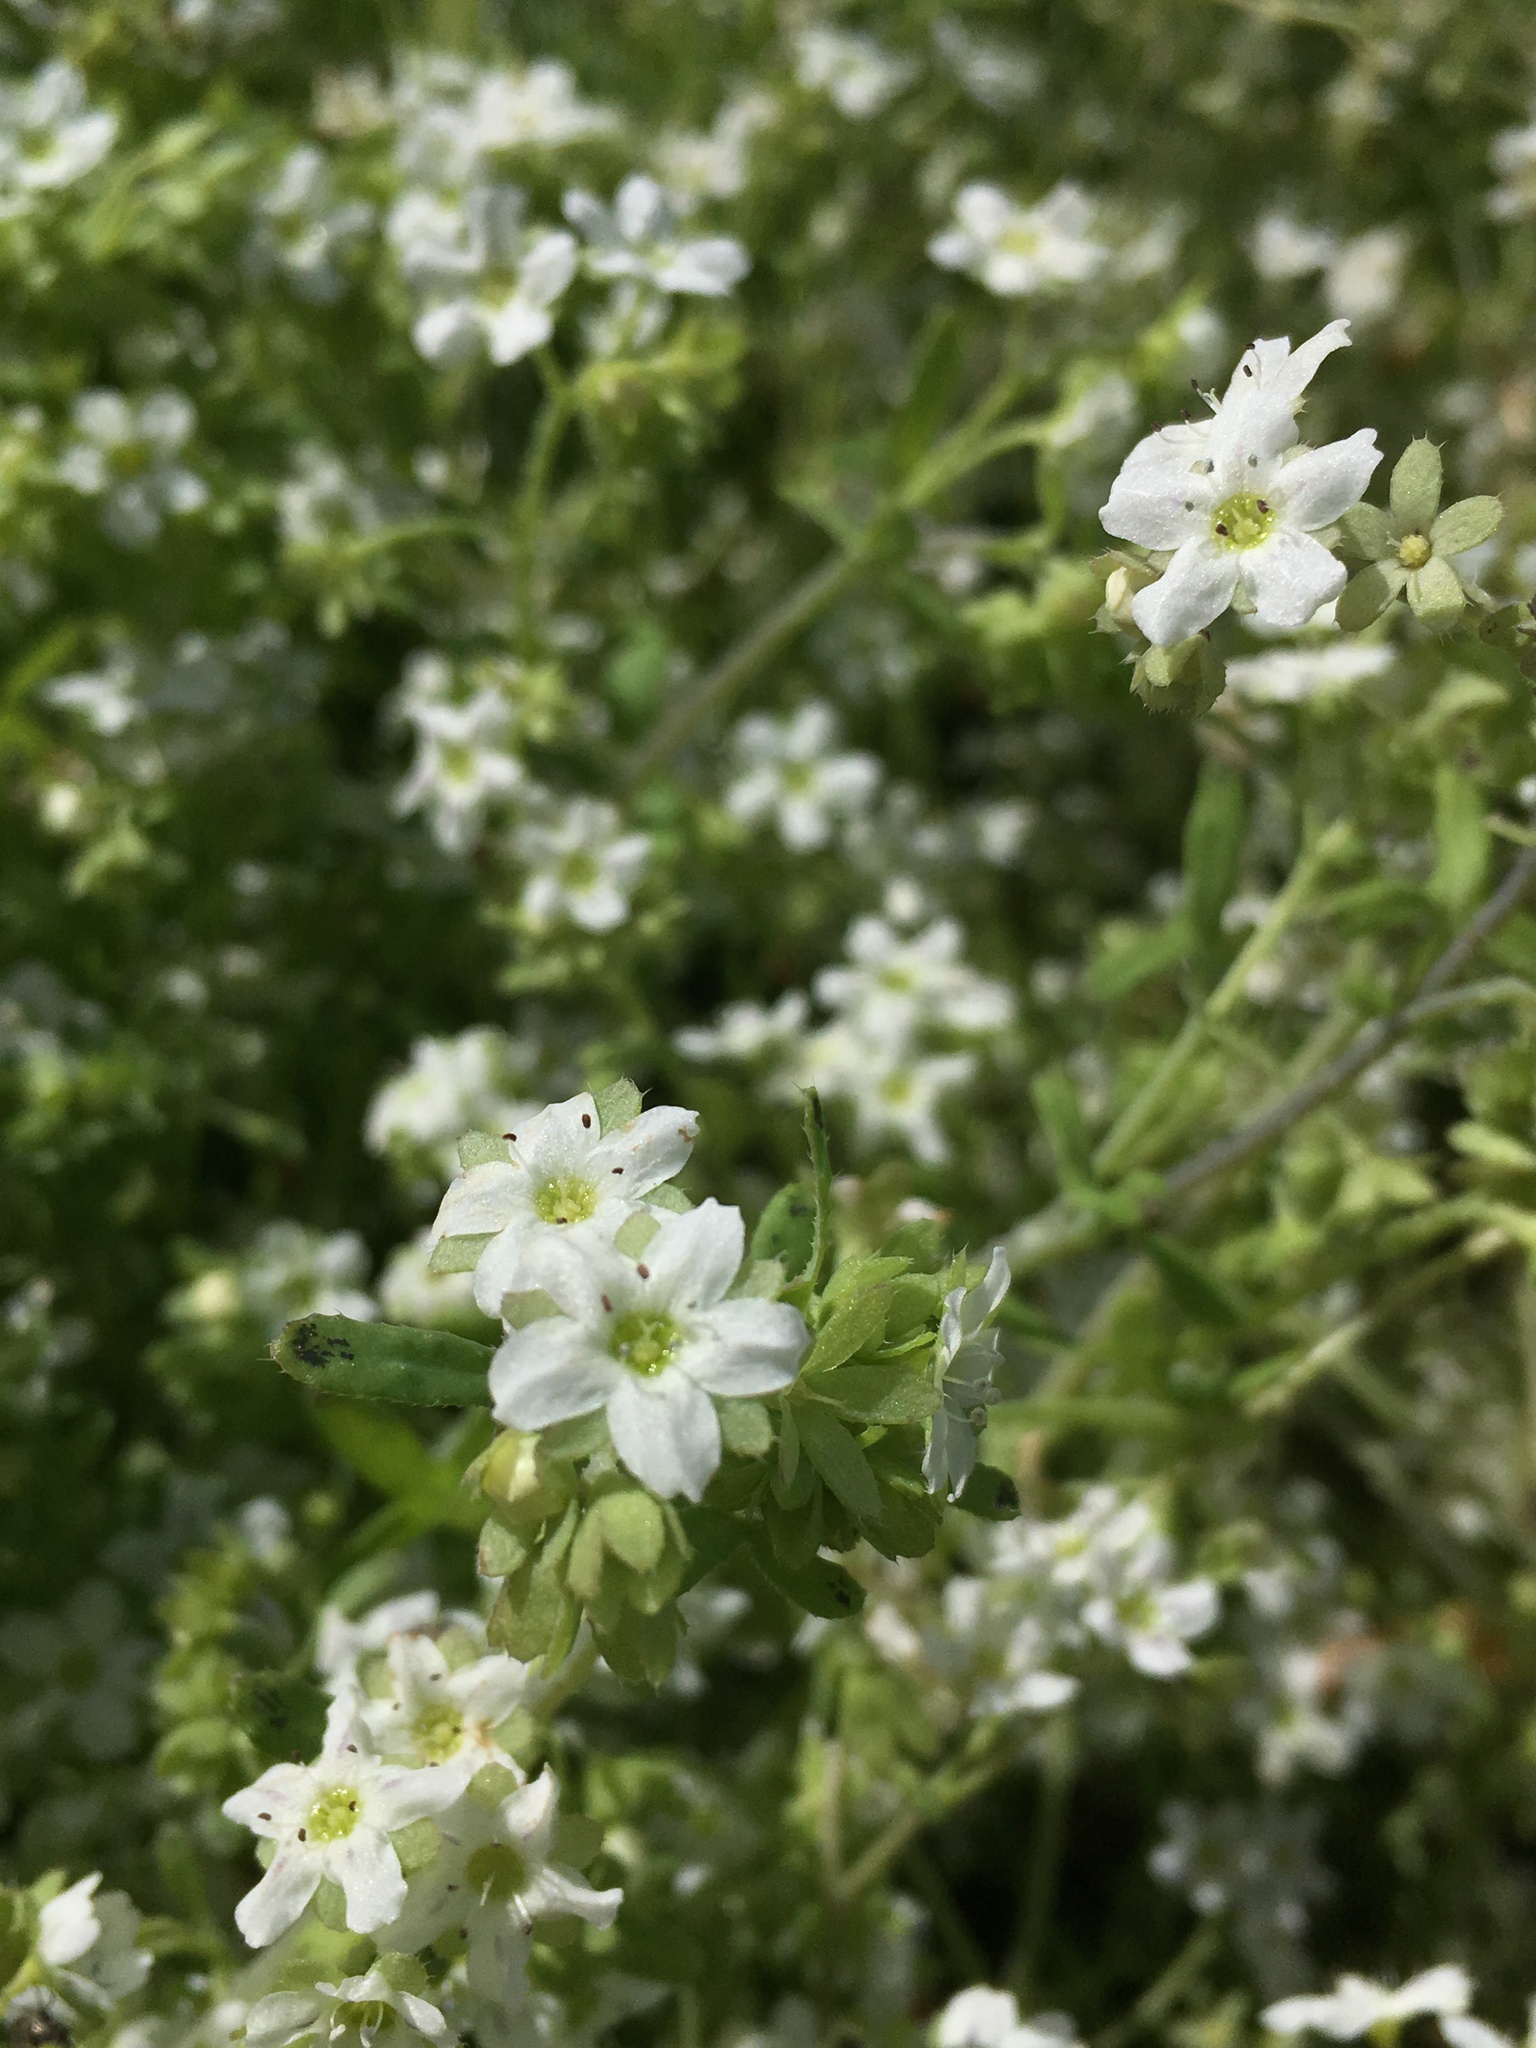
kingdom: Plantae
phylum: Tracheophyta
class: Magnoliopsida
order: Boraginales
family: Hydrophyllaceae
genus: Pholistoma
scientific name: Pholistoma membranaceum
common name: White fiesta-flower
